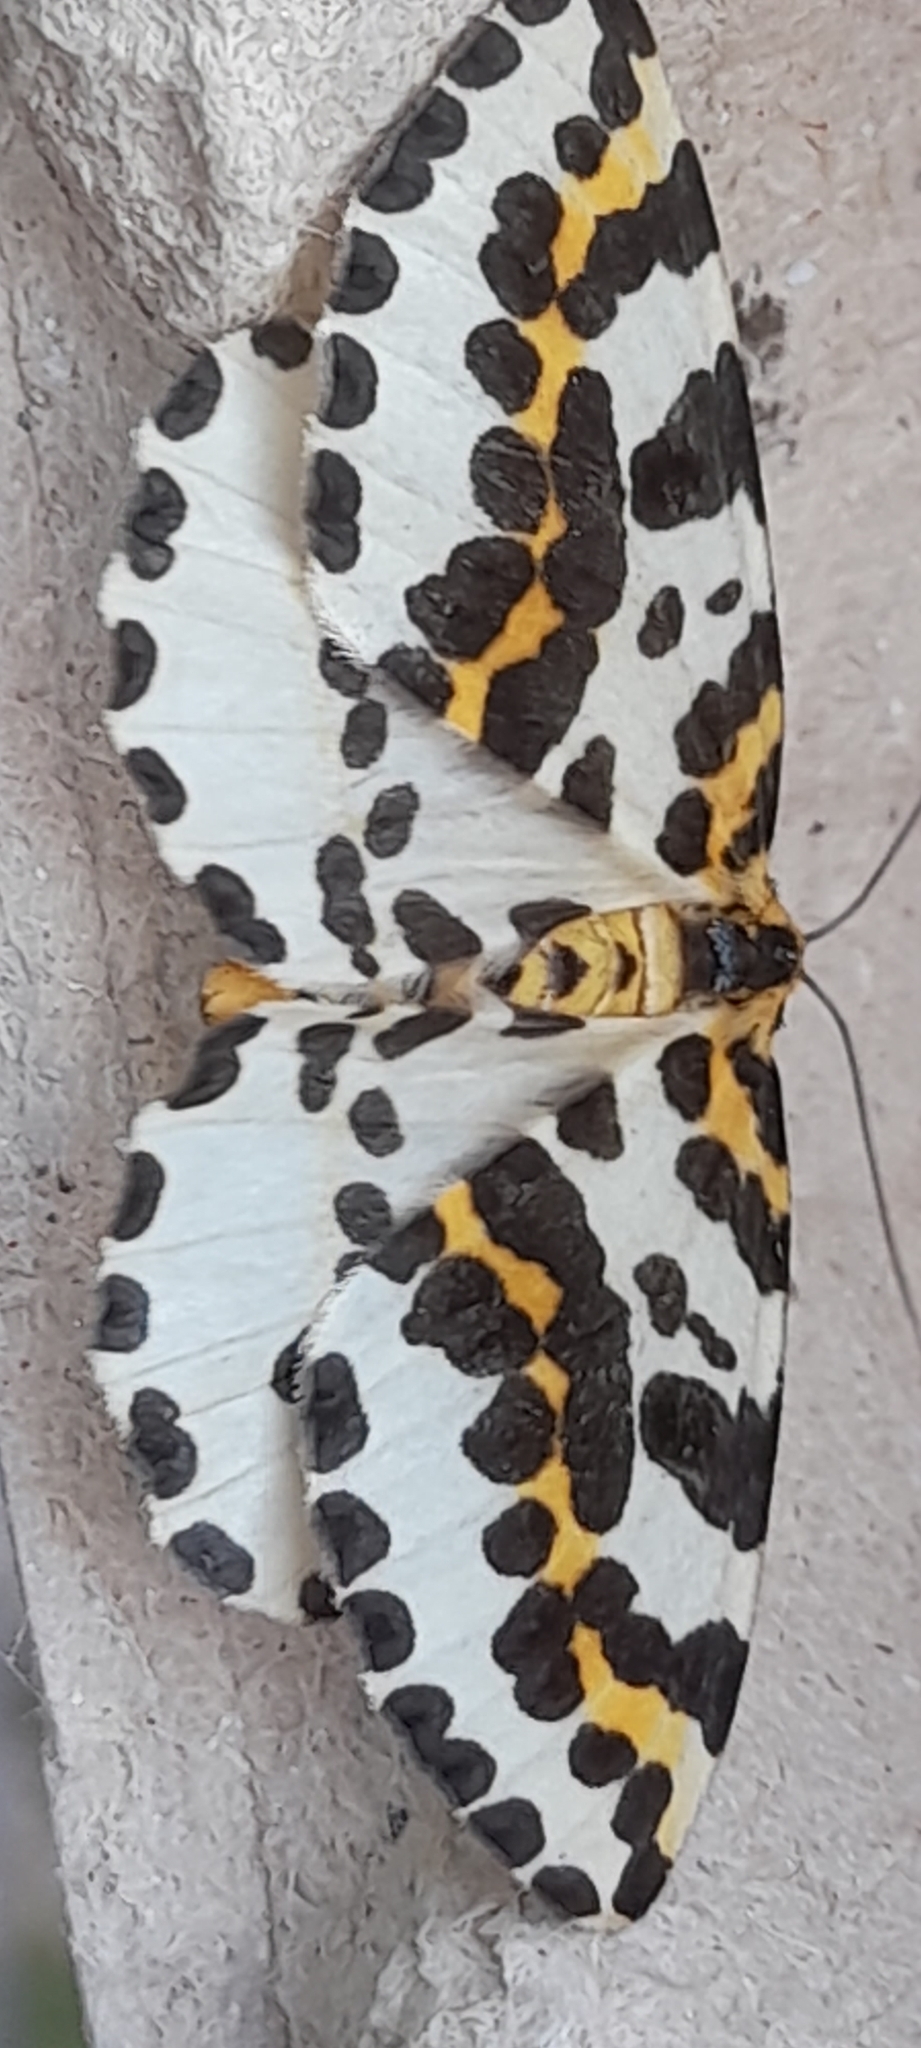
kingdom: Animalia
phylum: Arthropoda
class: Insecta
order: Lepidoptera
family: Geometridae
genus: Abraxas
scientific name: Abraxas grossulariata
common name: Magpie
